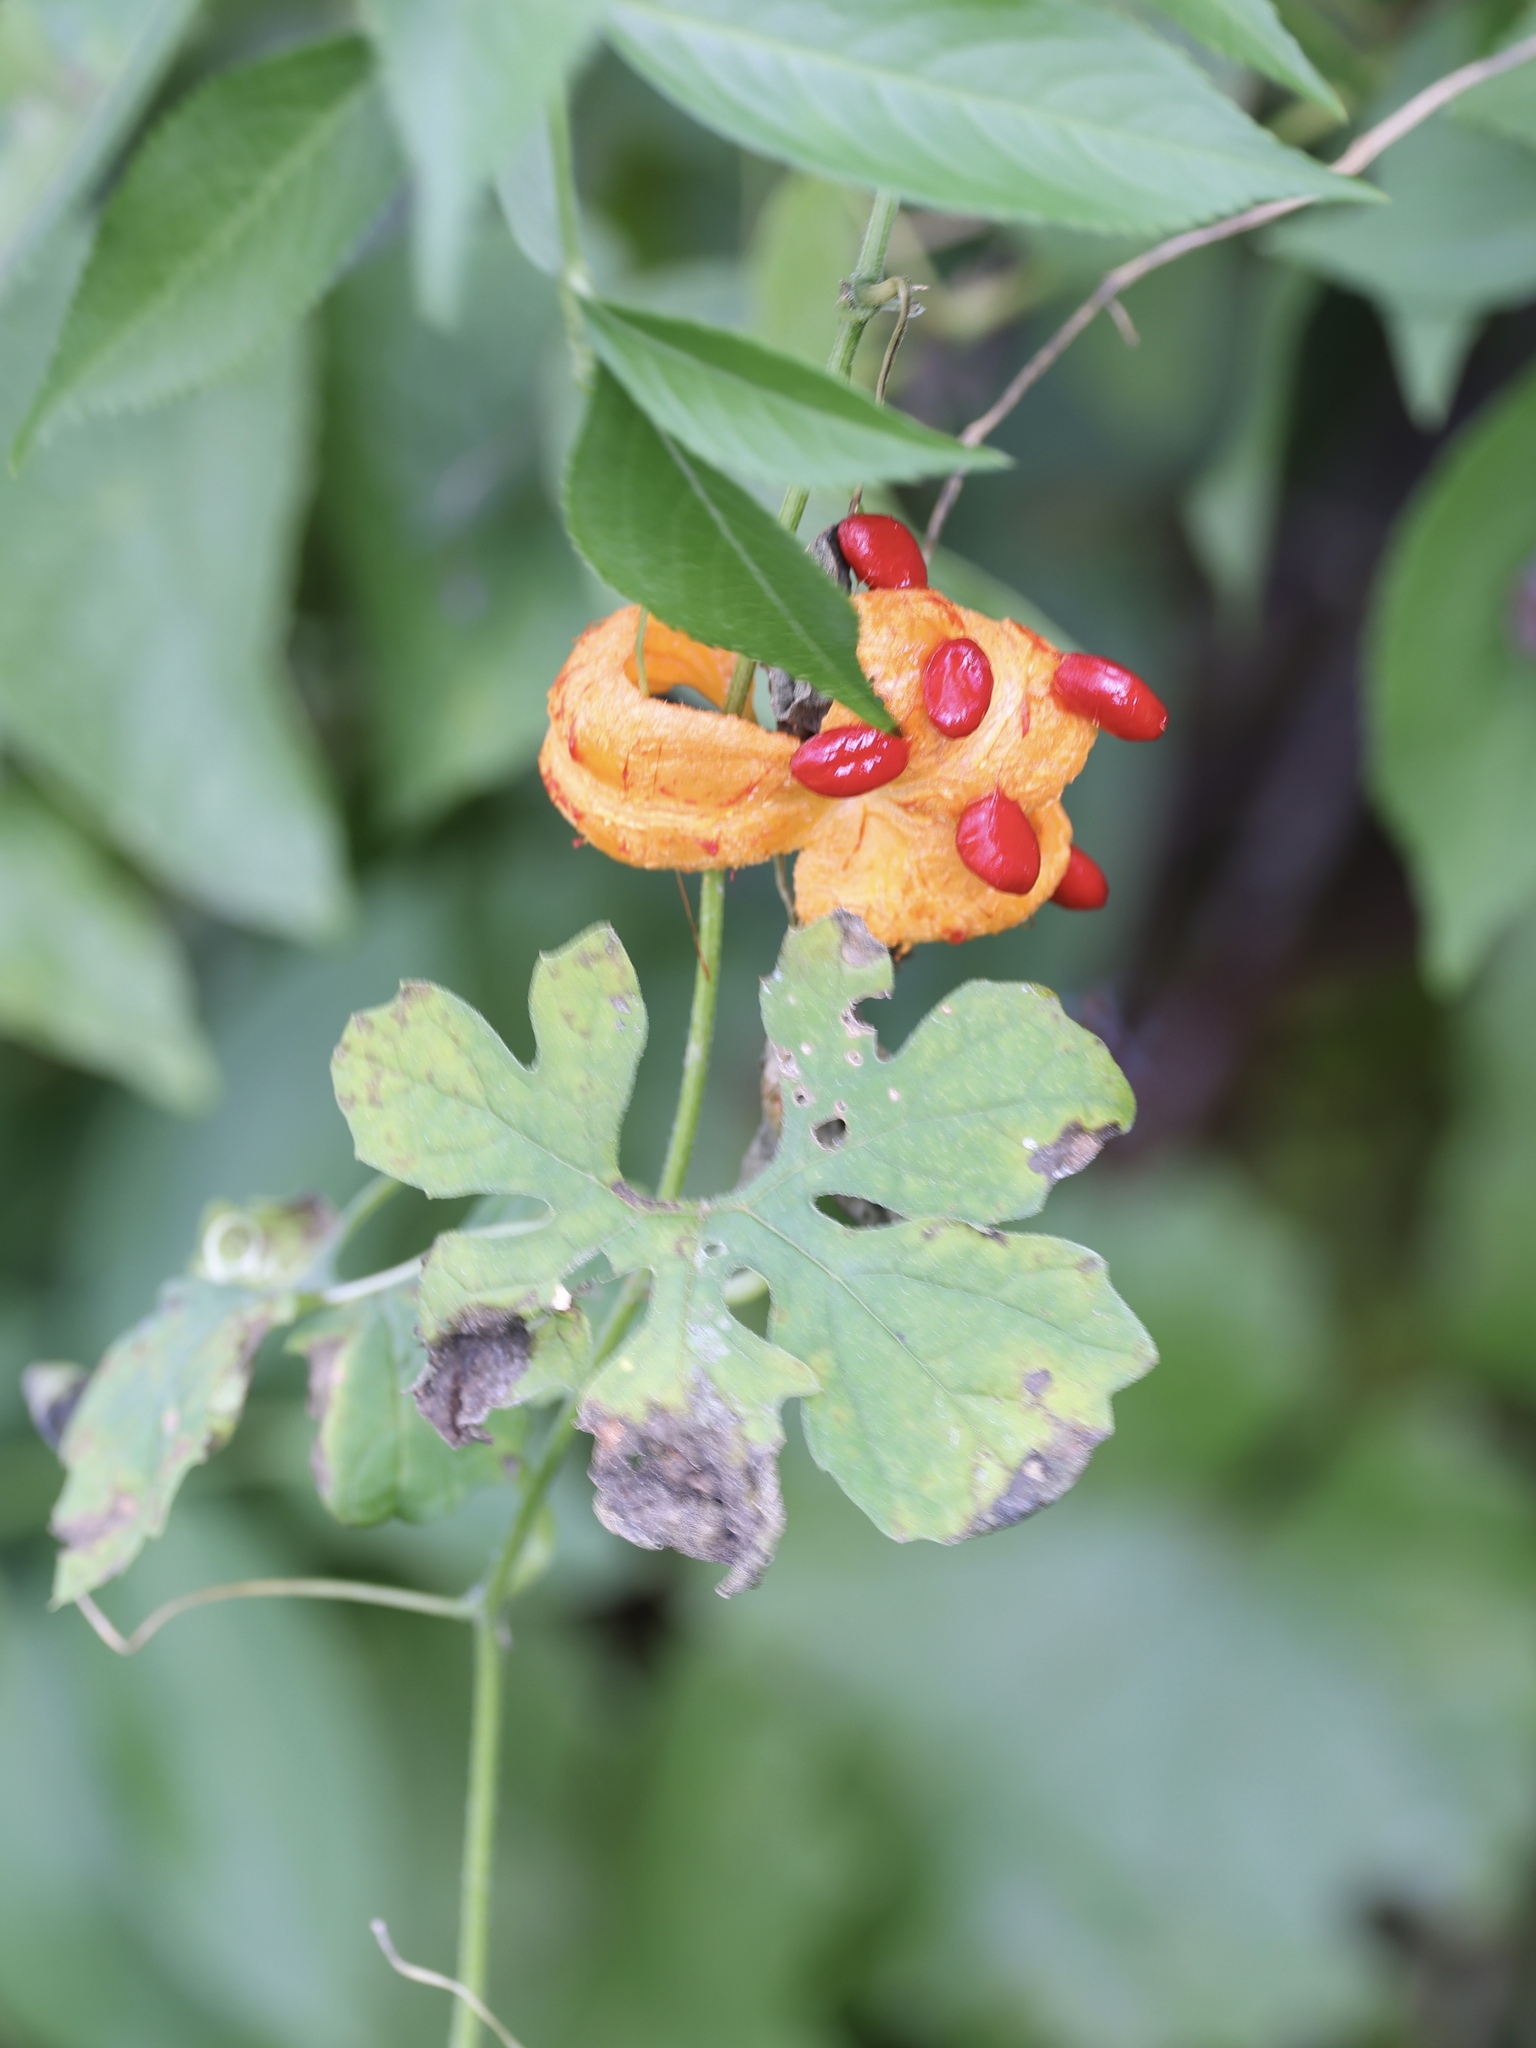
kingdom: Plantae
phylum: Tracheophyta
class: Magnoliopsida
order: Cucurbitales
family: Cucurbitaceae
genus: Momordica
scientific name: Momordica charantia
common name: Balsampear
